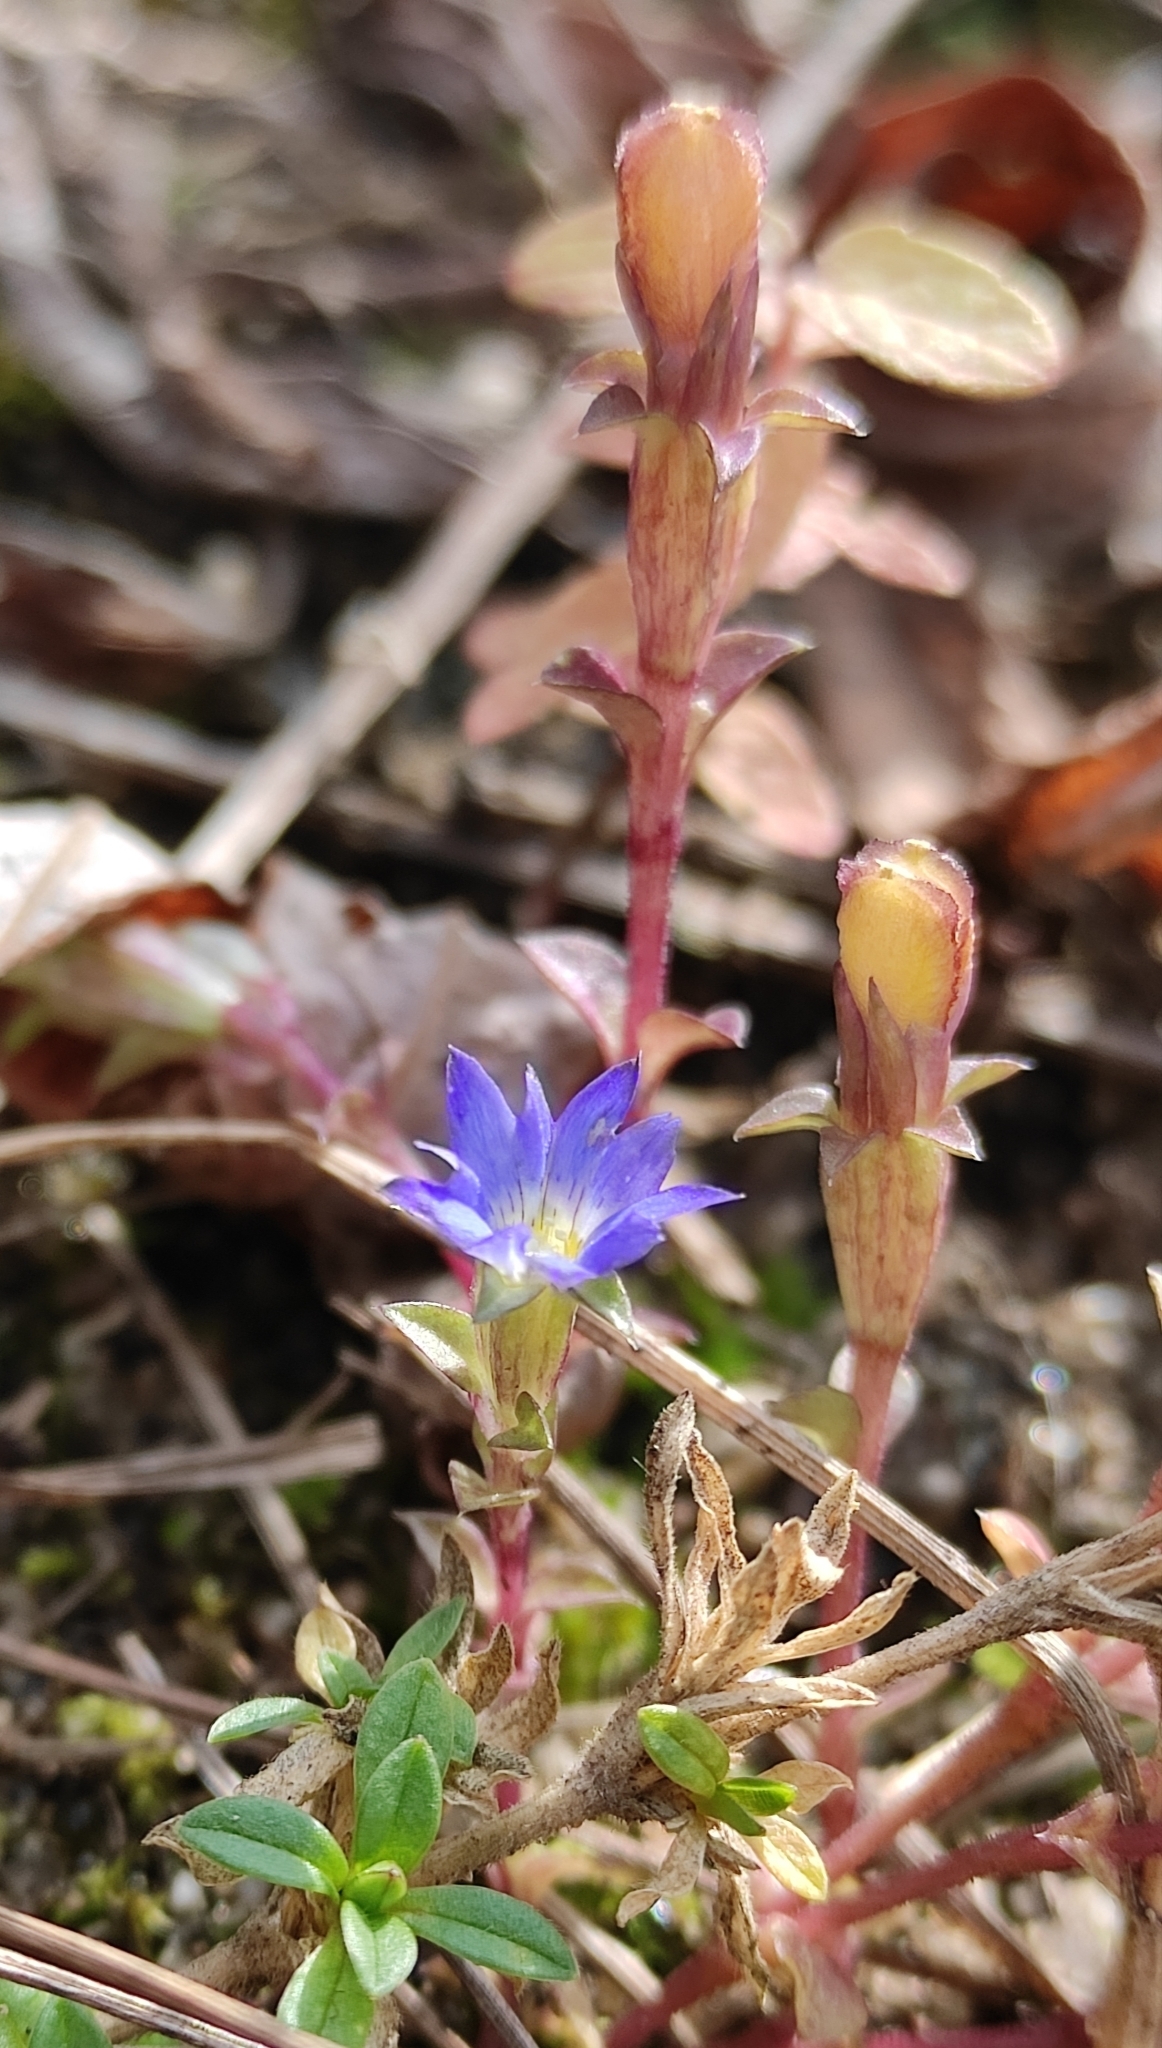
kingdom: Plantae
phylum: Tracheophyta
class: Magnoliopsida
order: Gentianales
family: Gentianaceae
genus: Gentiana
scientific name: Gentiana squarrosa
